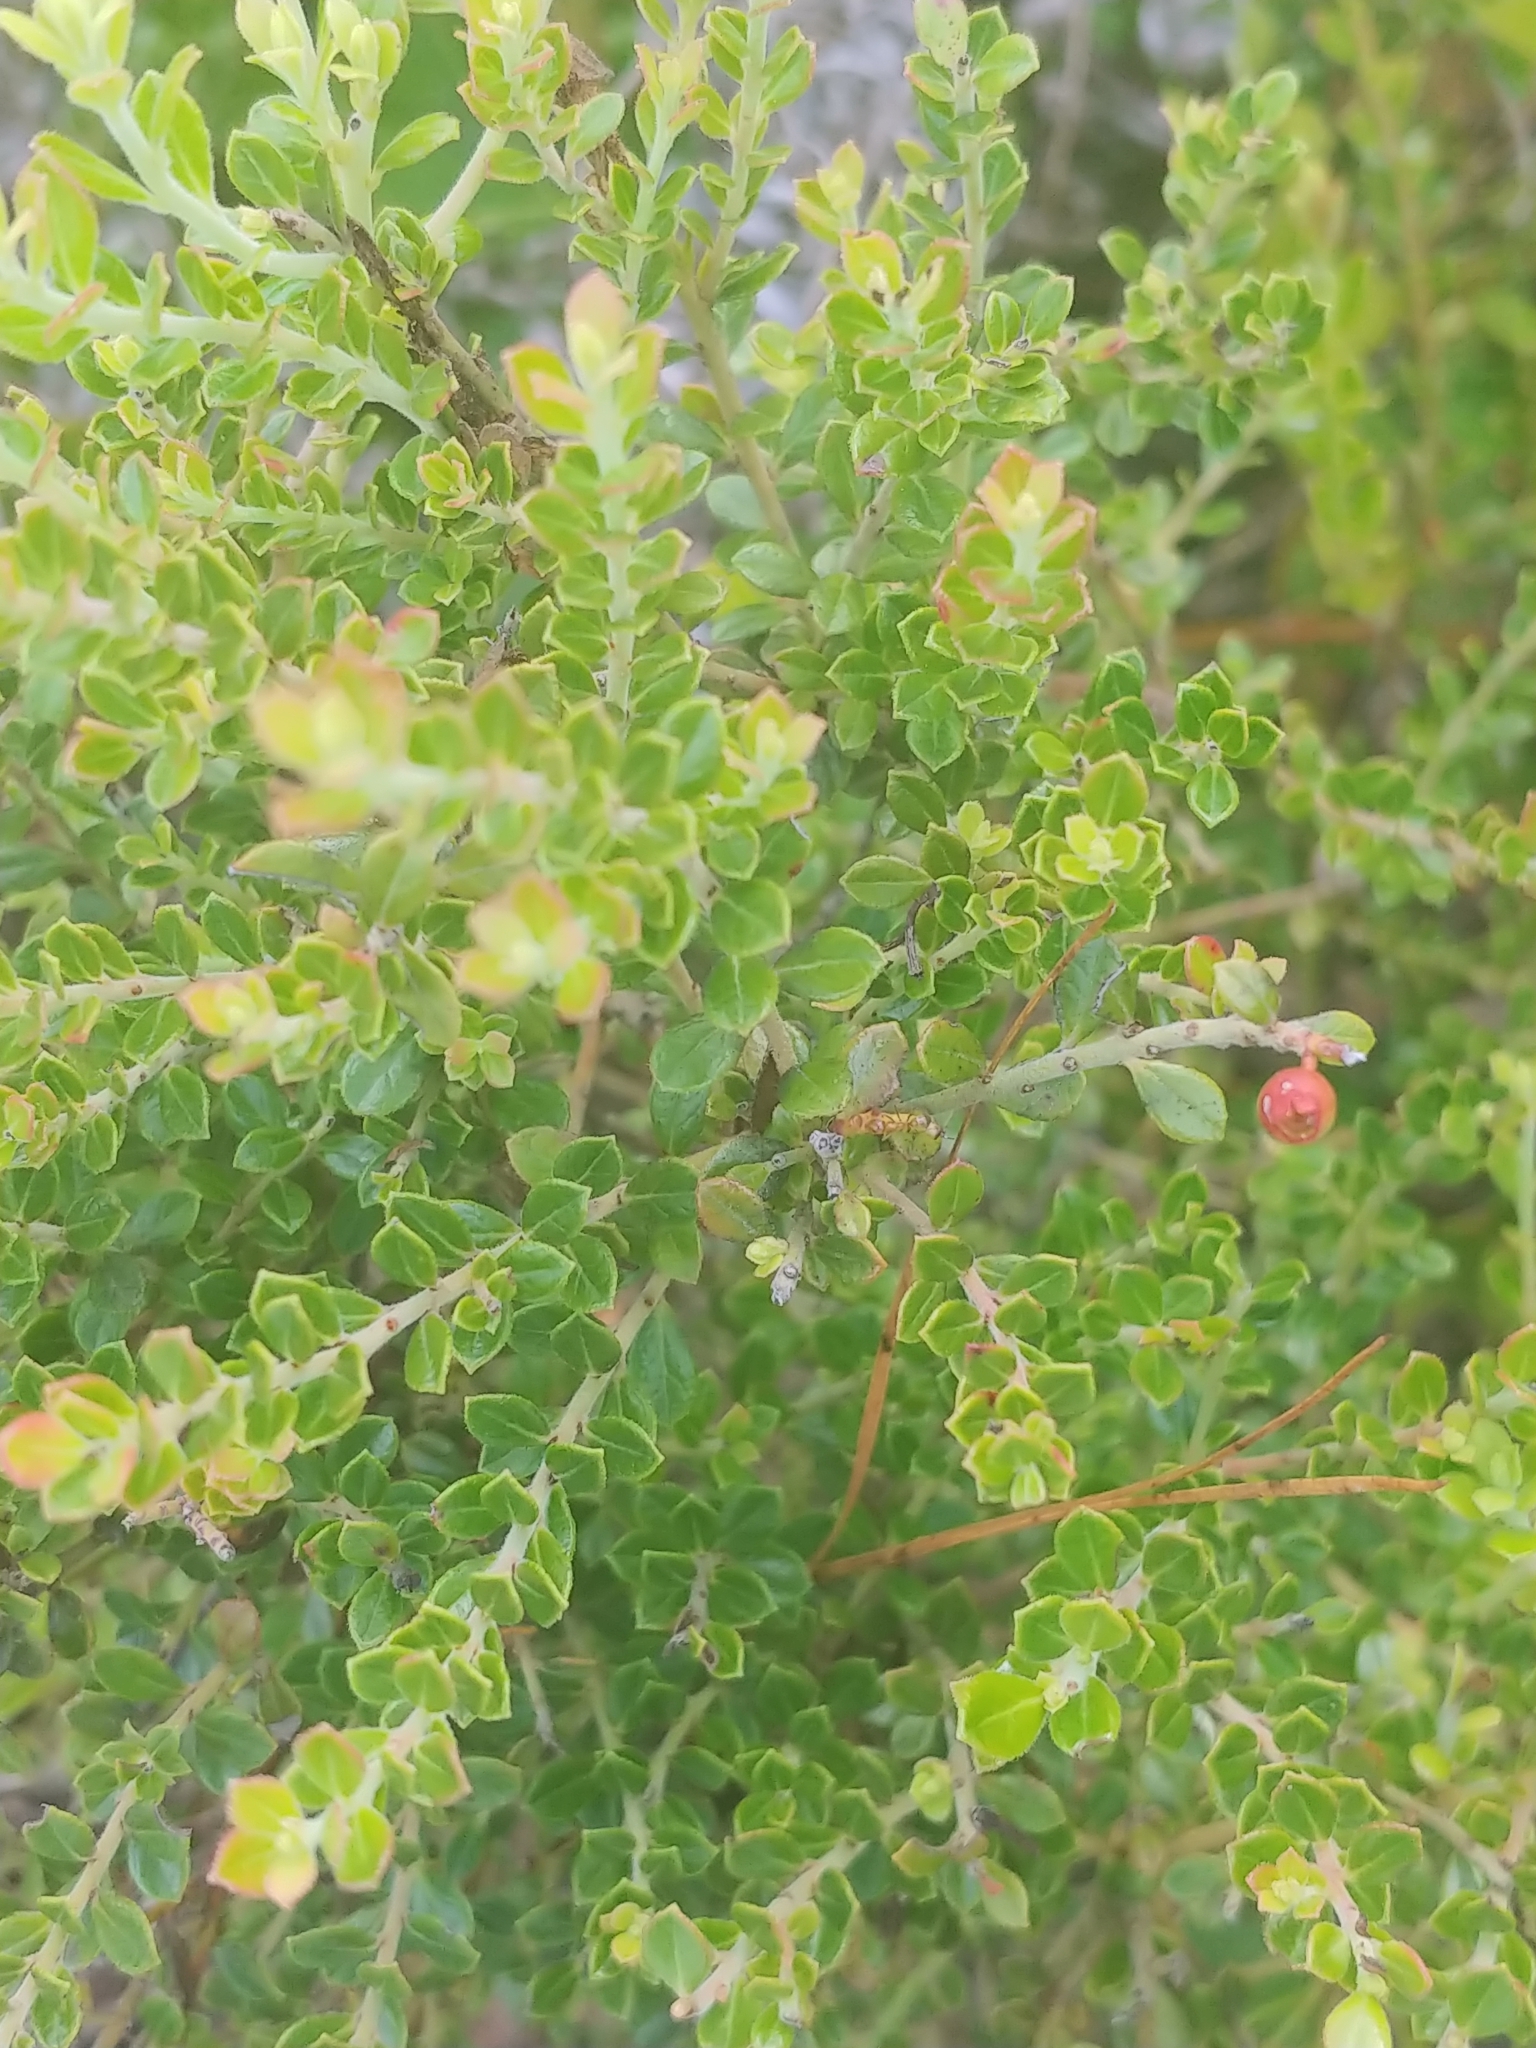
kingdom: Plantae
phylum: Tracheophyta
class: Magnoliopsida
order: Ericales
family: Ericaceae
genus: Vaccinium
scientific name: Vaccinium myrsinites
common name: Evergreen blueberry
